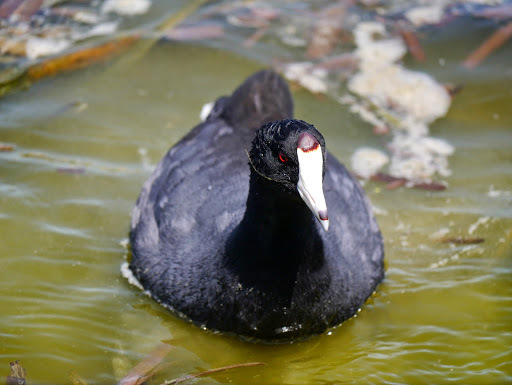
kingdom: Animalia
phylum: Chordata
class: Aves
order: Gruiformes
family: Rallidae
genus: Fulica
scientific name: Fulica americana
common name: American coot
